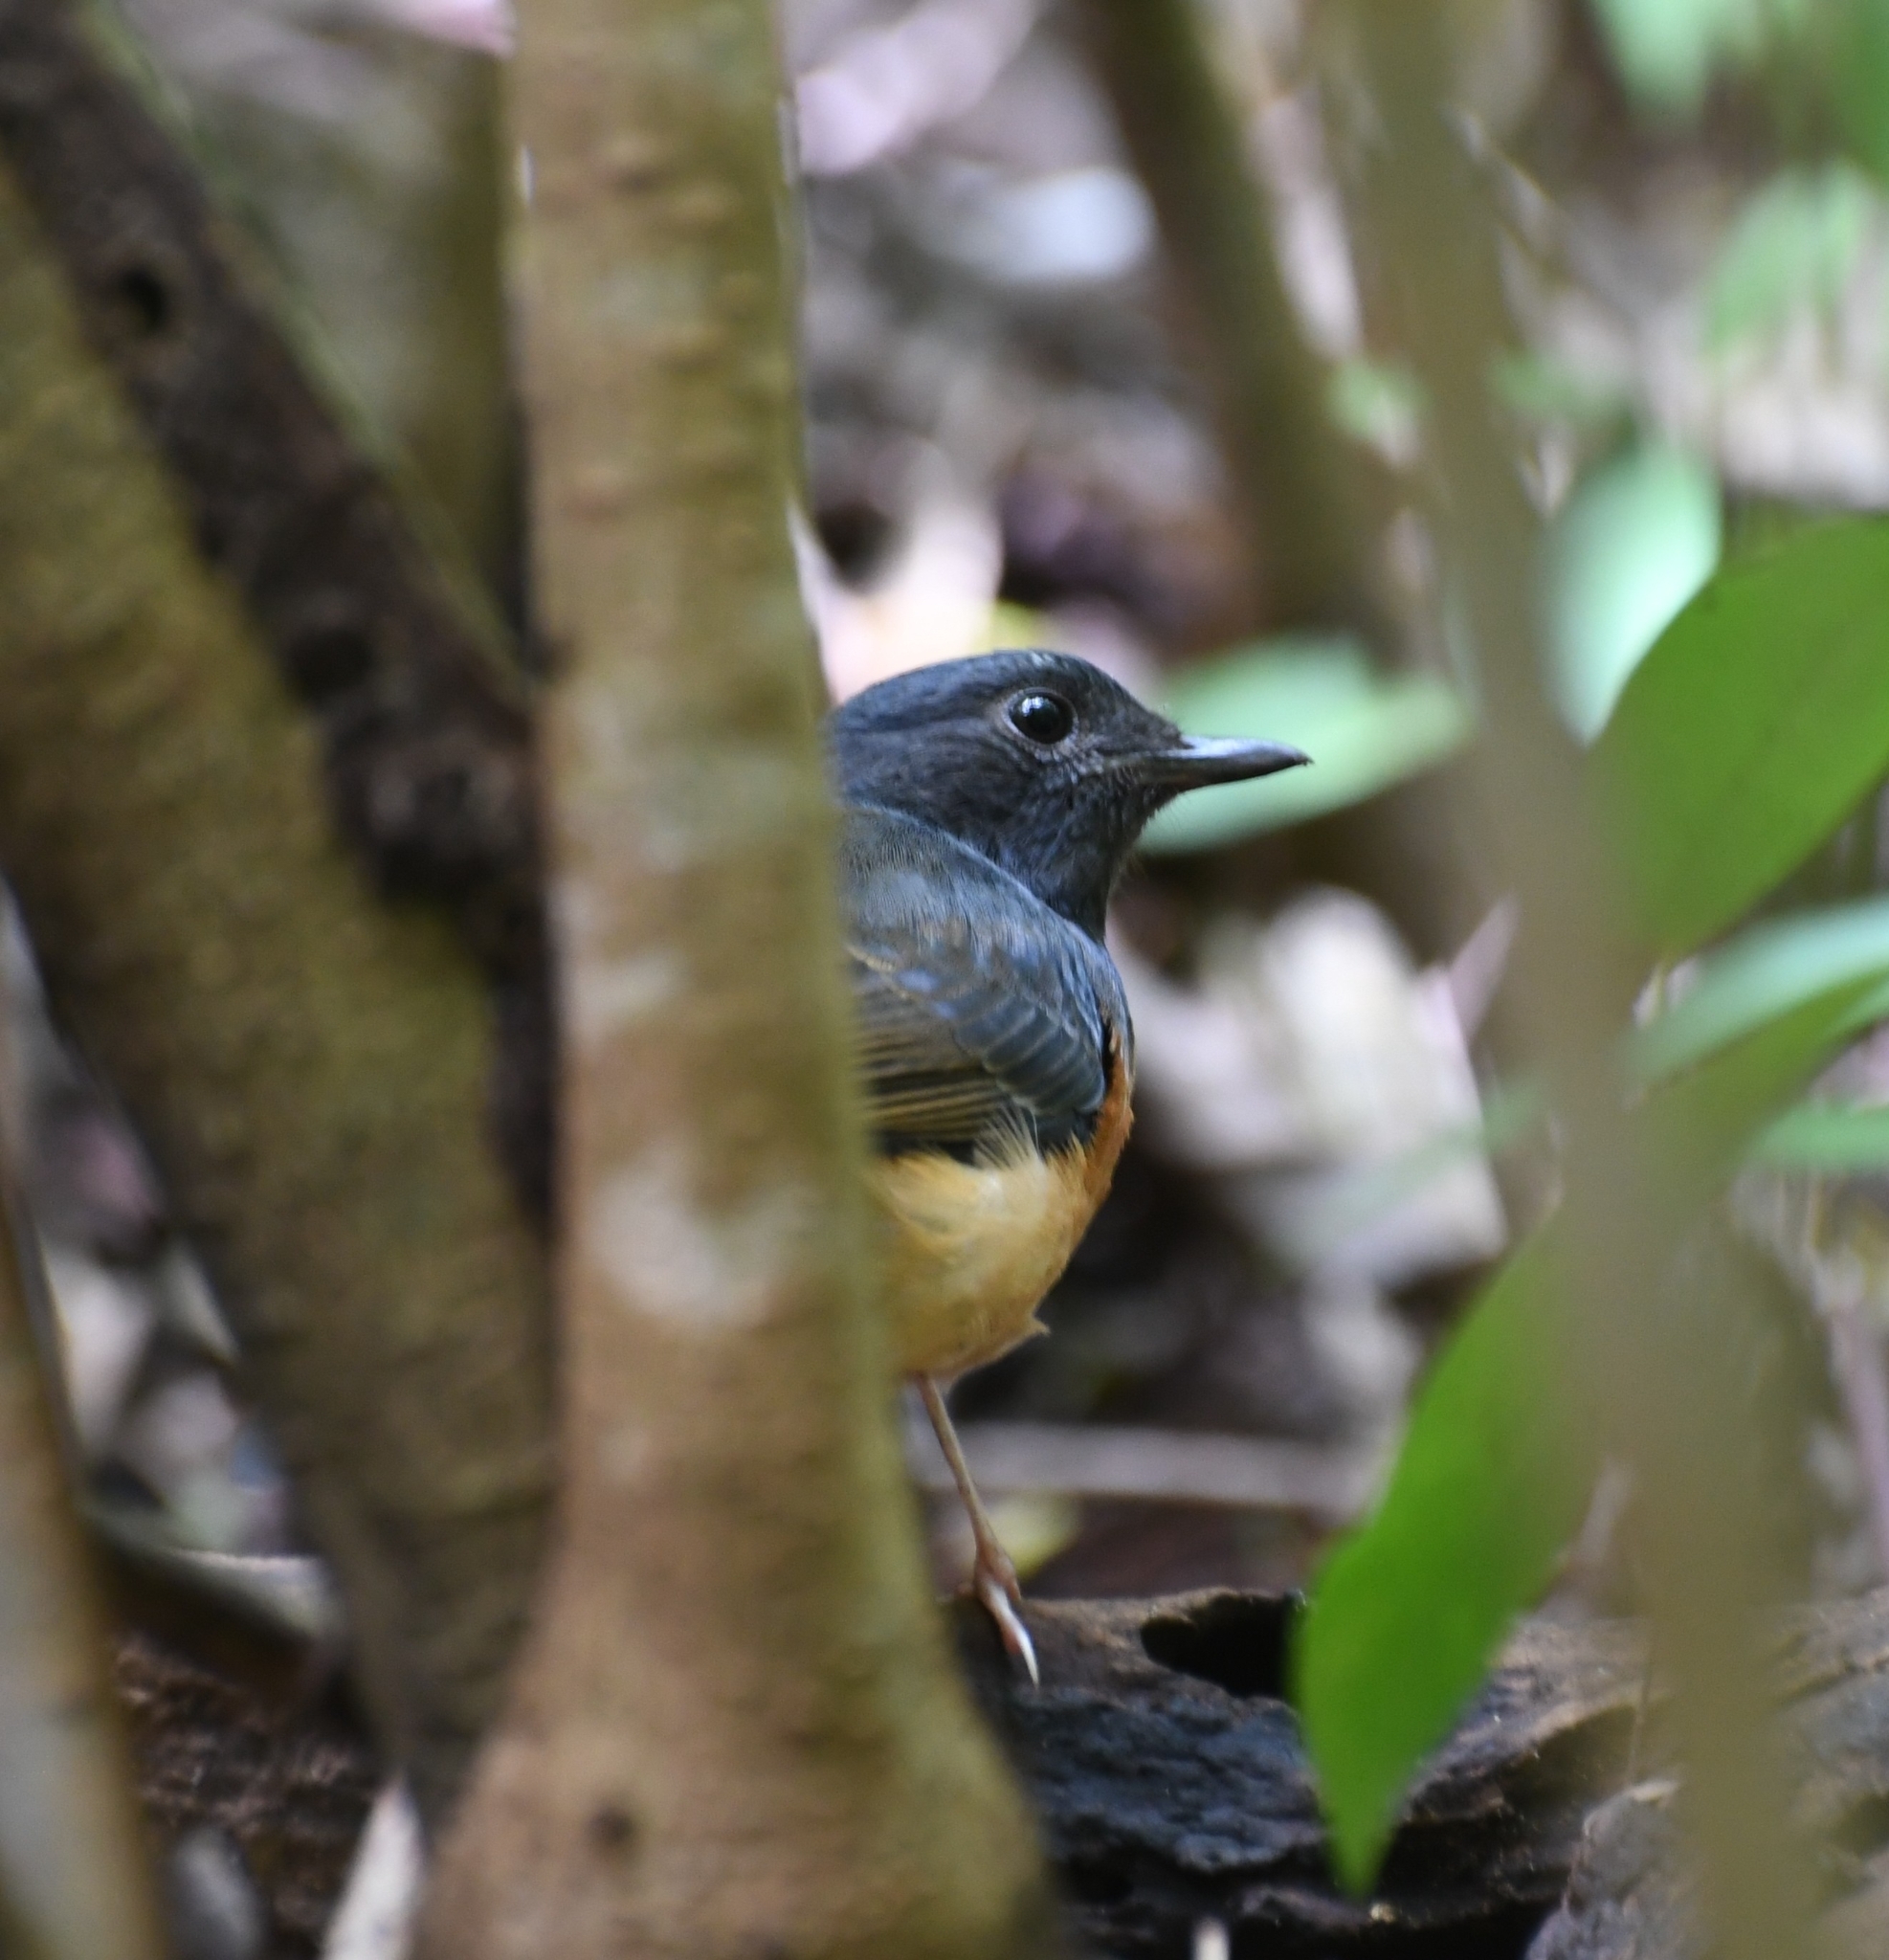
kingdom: Animalia
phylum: Chordata
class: Aves
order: Passeriformes
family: Muscicapidae
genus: Copsychus
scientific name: Copsychus malabaricus
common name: White-rumped shama
